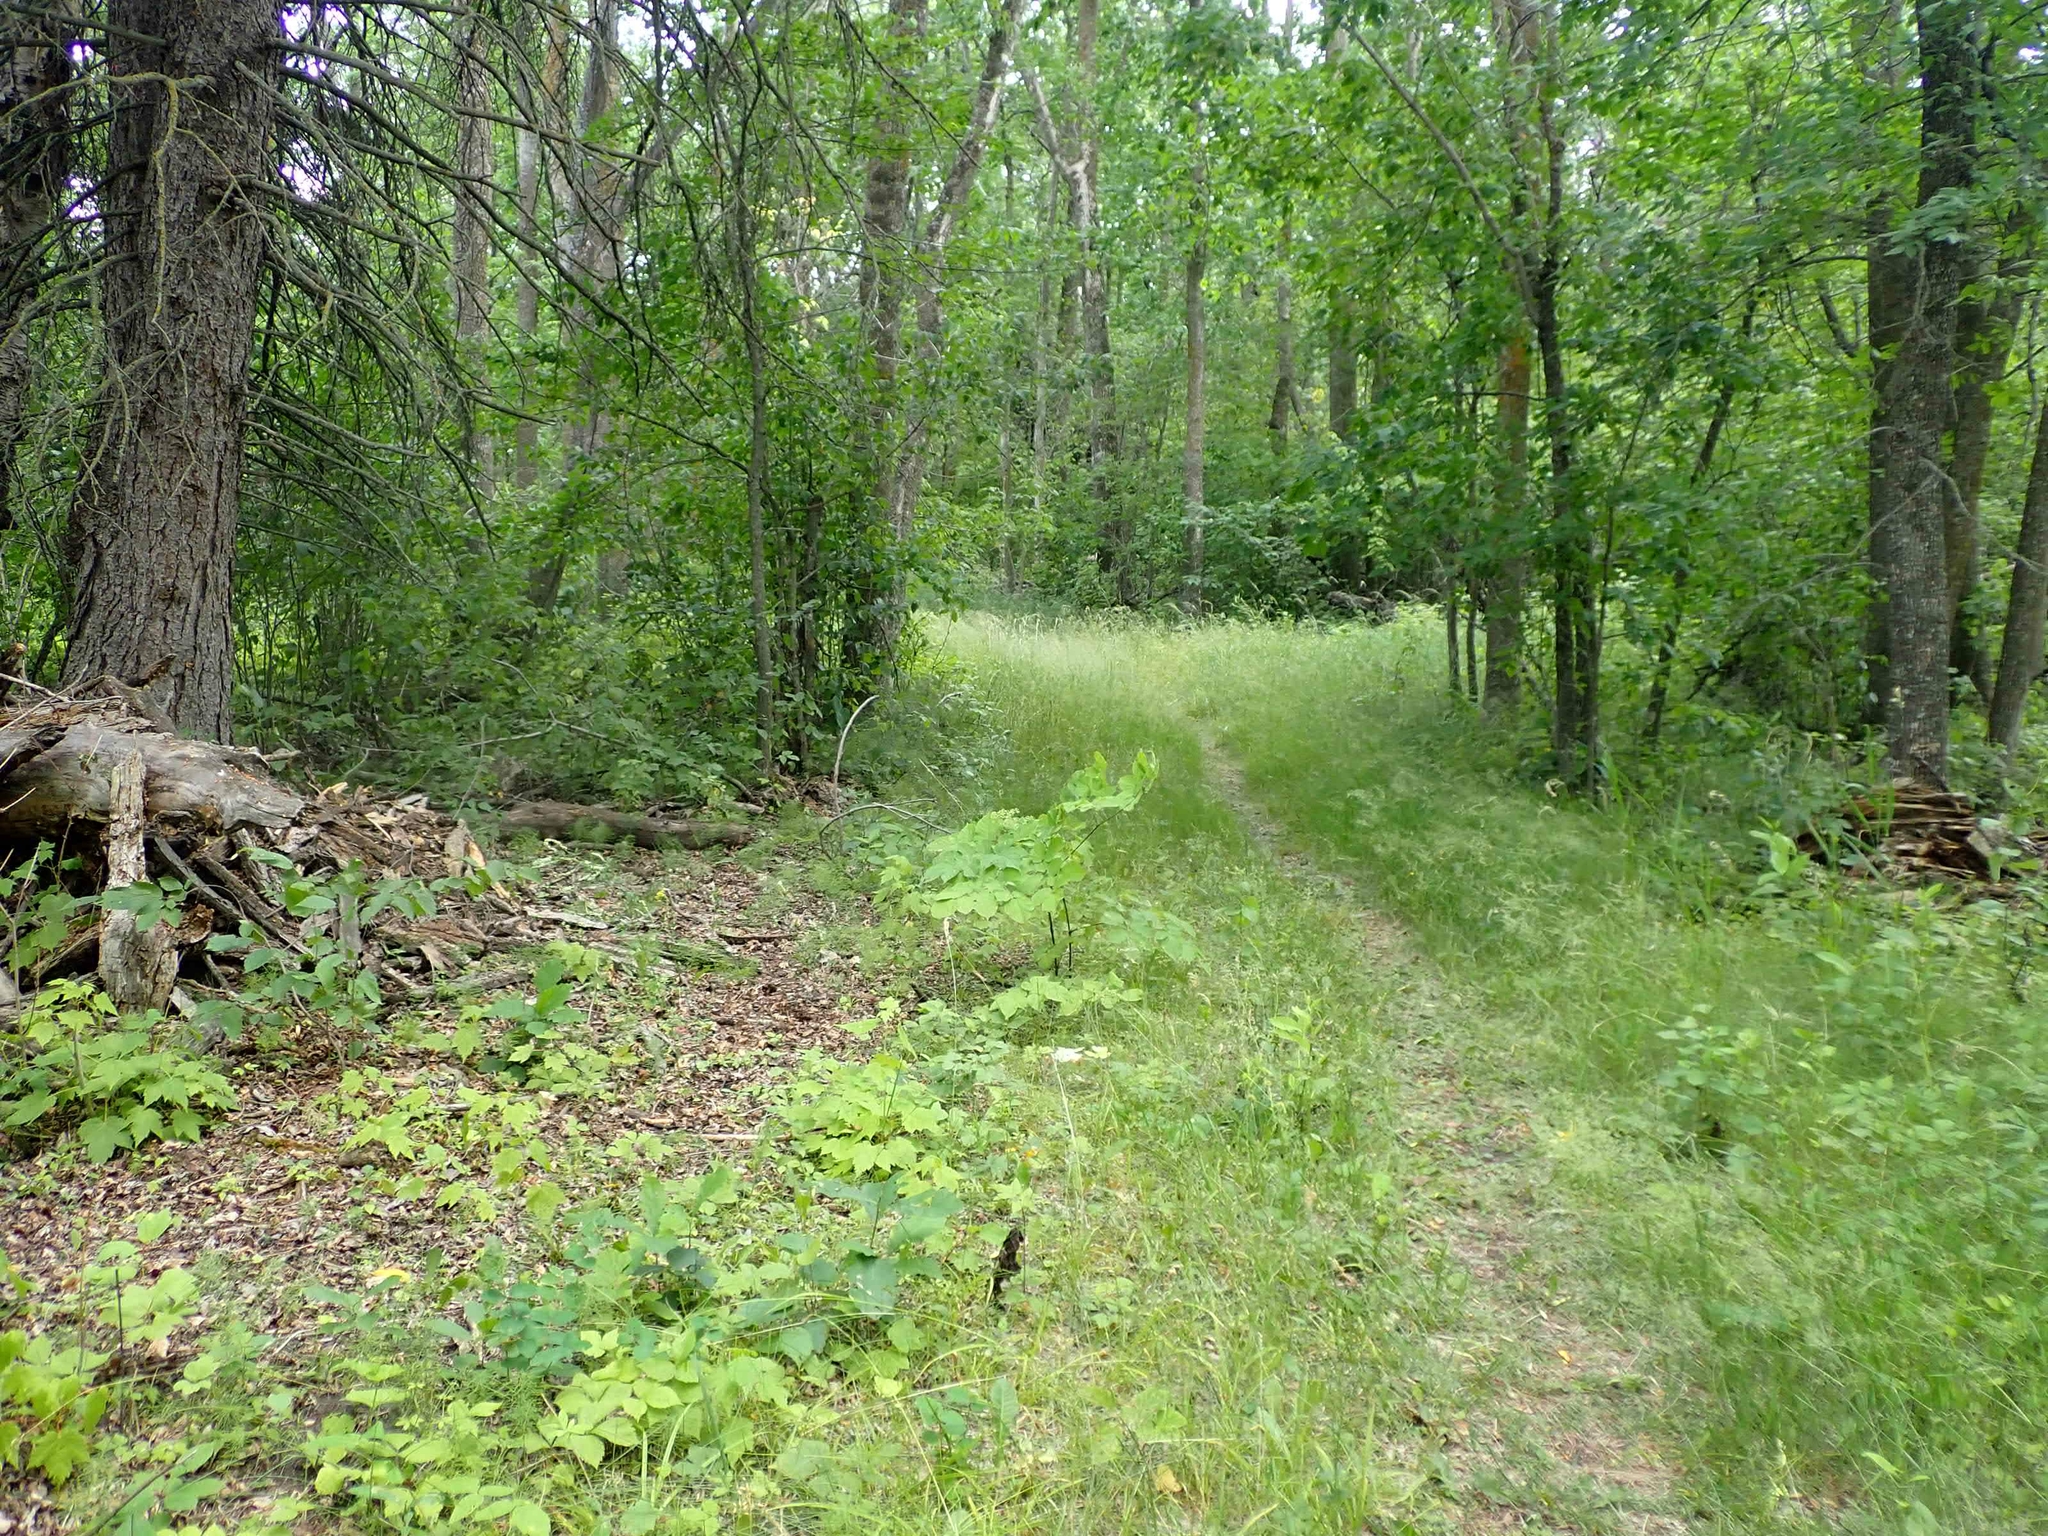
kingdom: Plantae
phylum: Tracheophyta
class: Magnoliopsida
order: Apiales
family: Araliaceae
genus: Aralia
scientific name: Aralia racemosa
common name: American-spikenard
